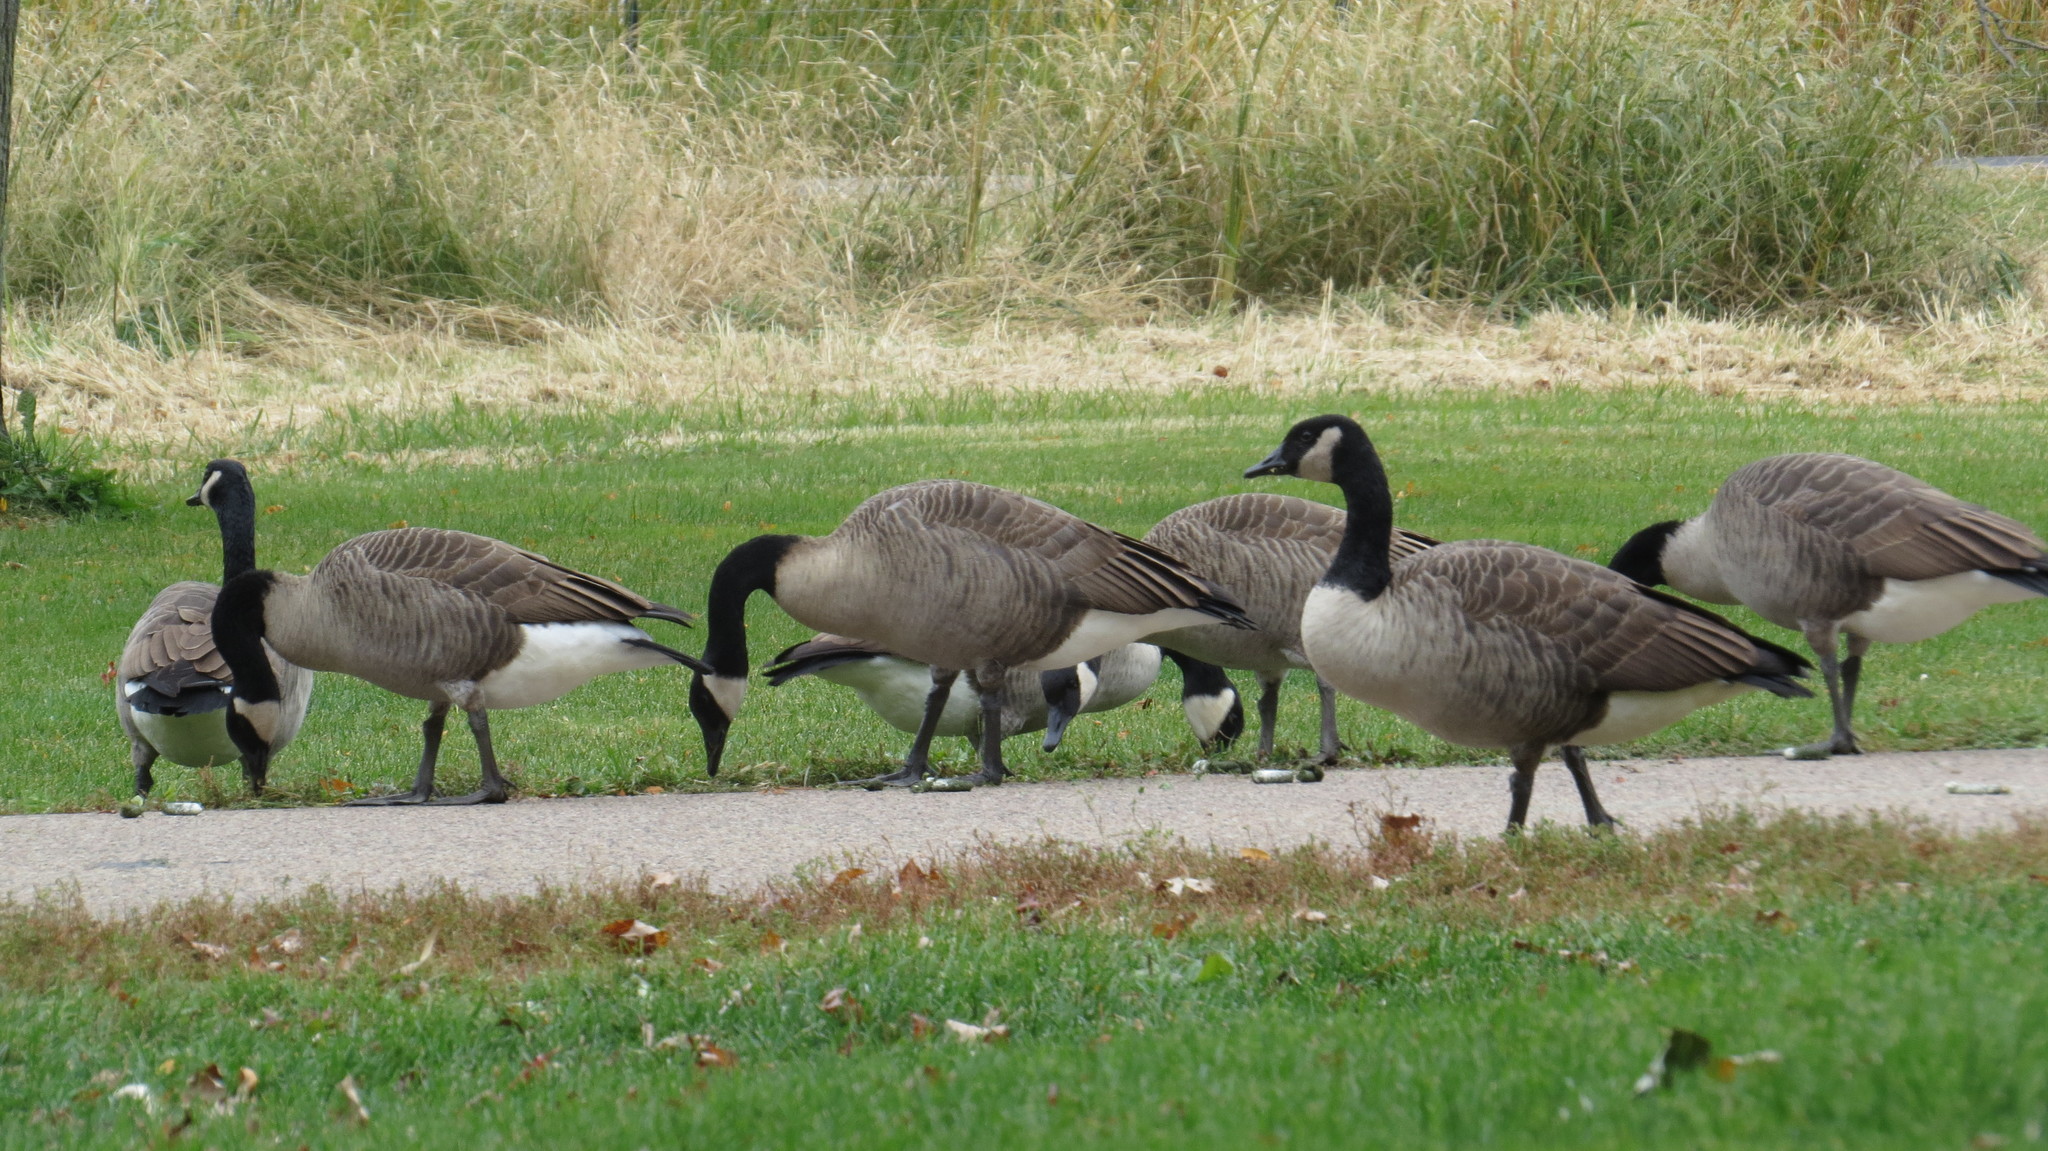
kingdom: Animalia
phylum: Chordata
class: Aves
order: Anseriformes
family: Anatidae
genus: Branta
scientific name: Branta canadensis
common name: Canada goose
